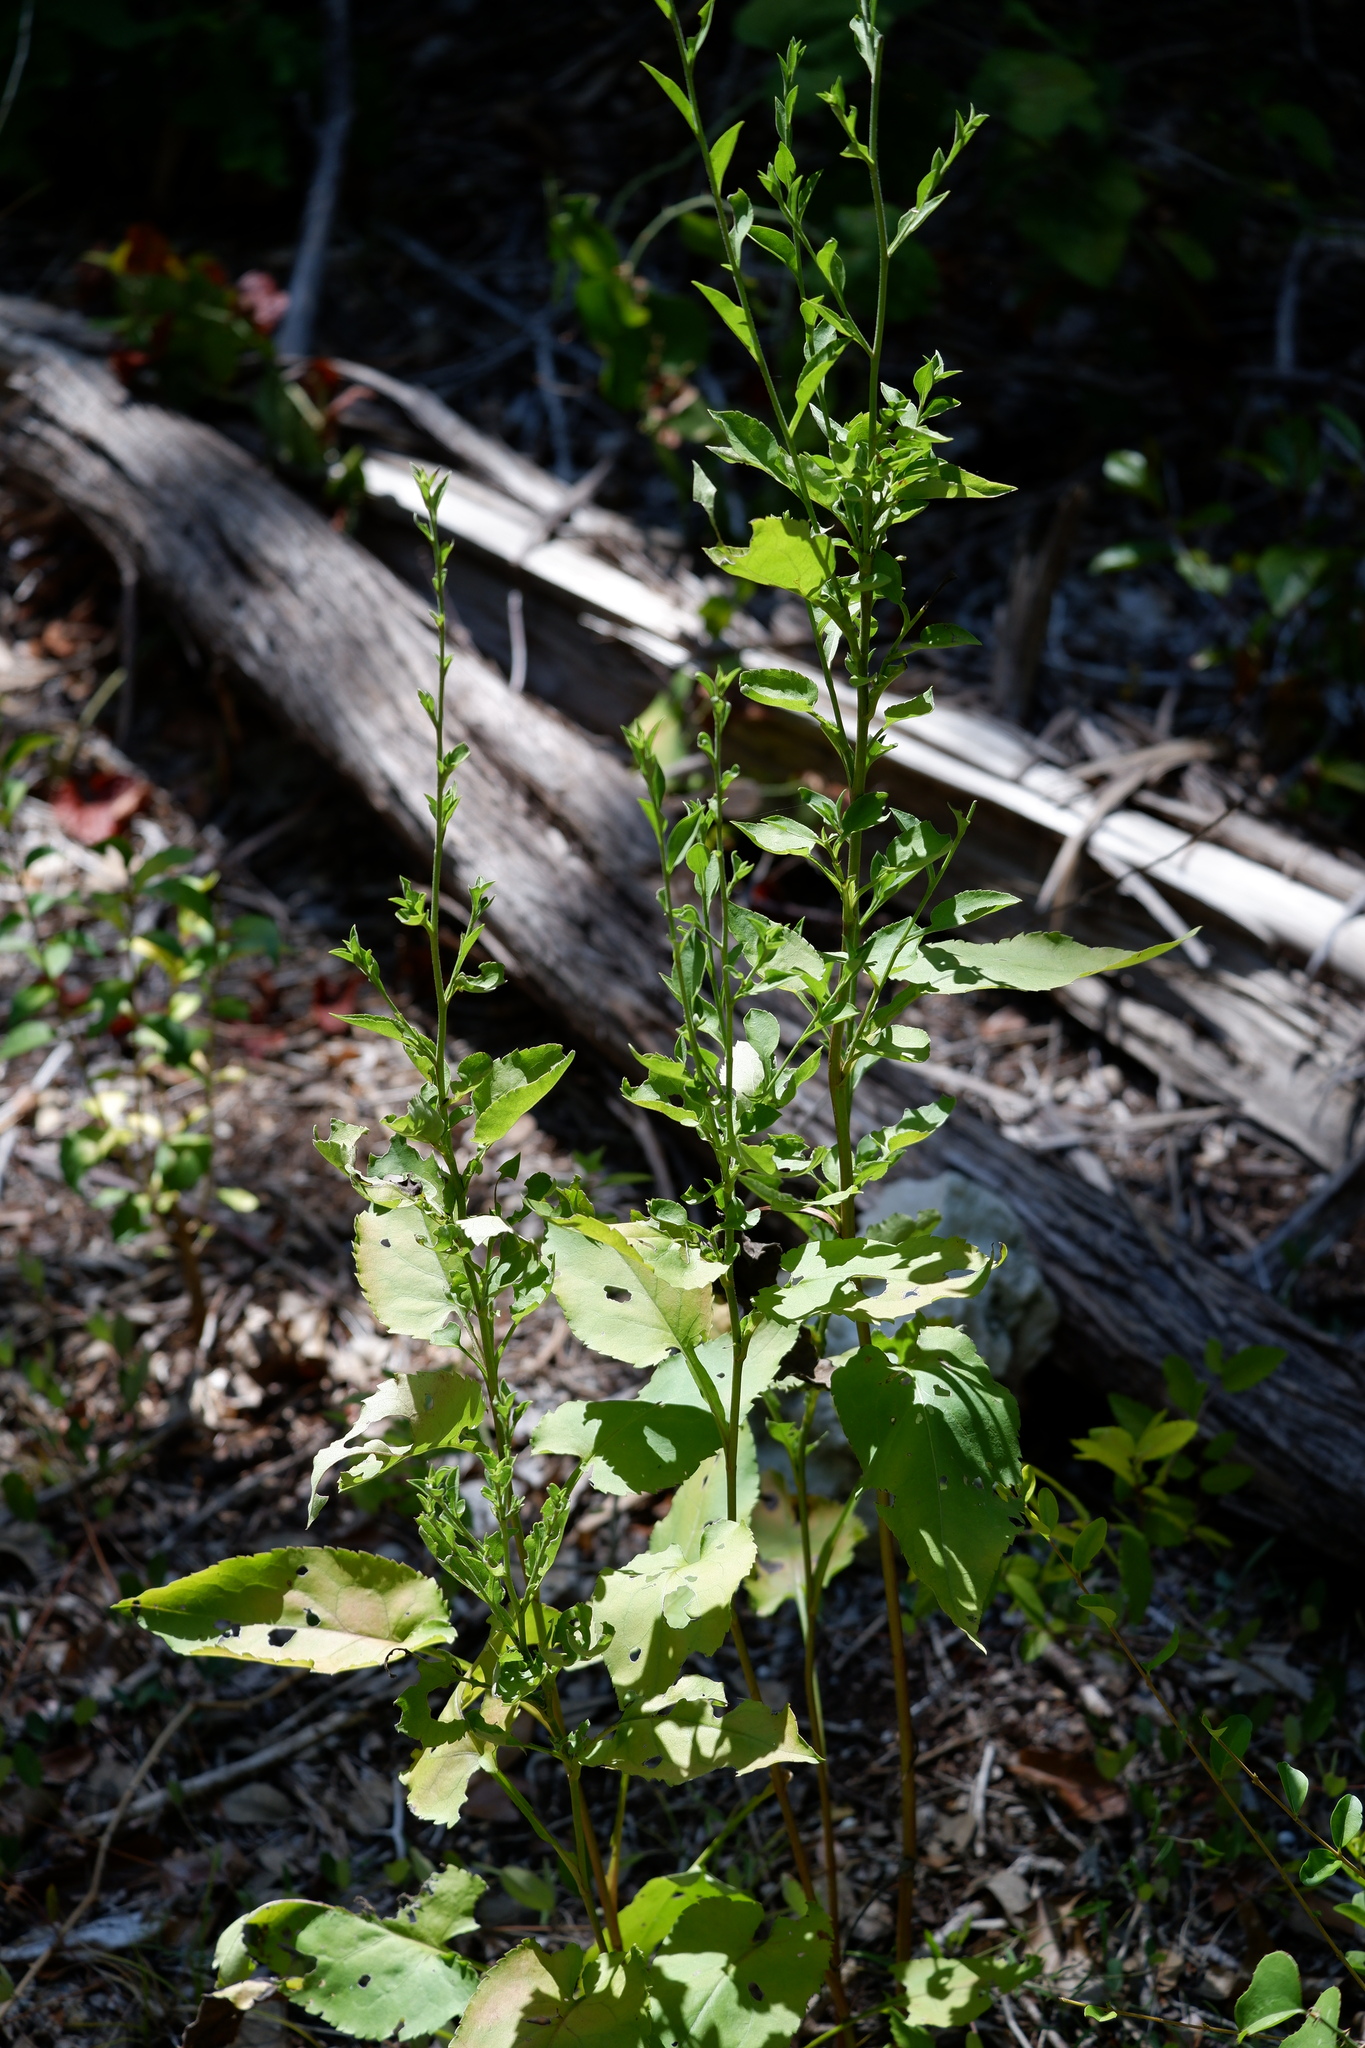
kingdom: Plantae
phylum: Tracheophyta
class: Magnoliopsida
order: Asterales
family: Asteraceae
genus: Symphyotrichum
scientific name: Symphyotrichum drummondii
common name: Drummond's aster
